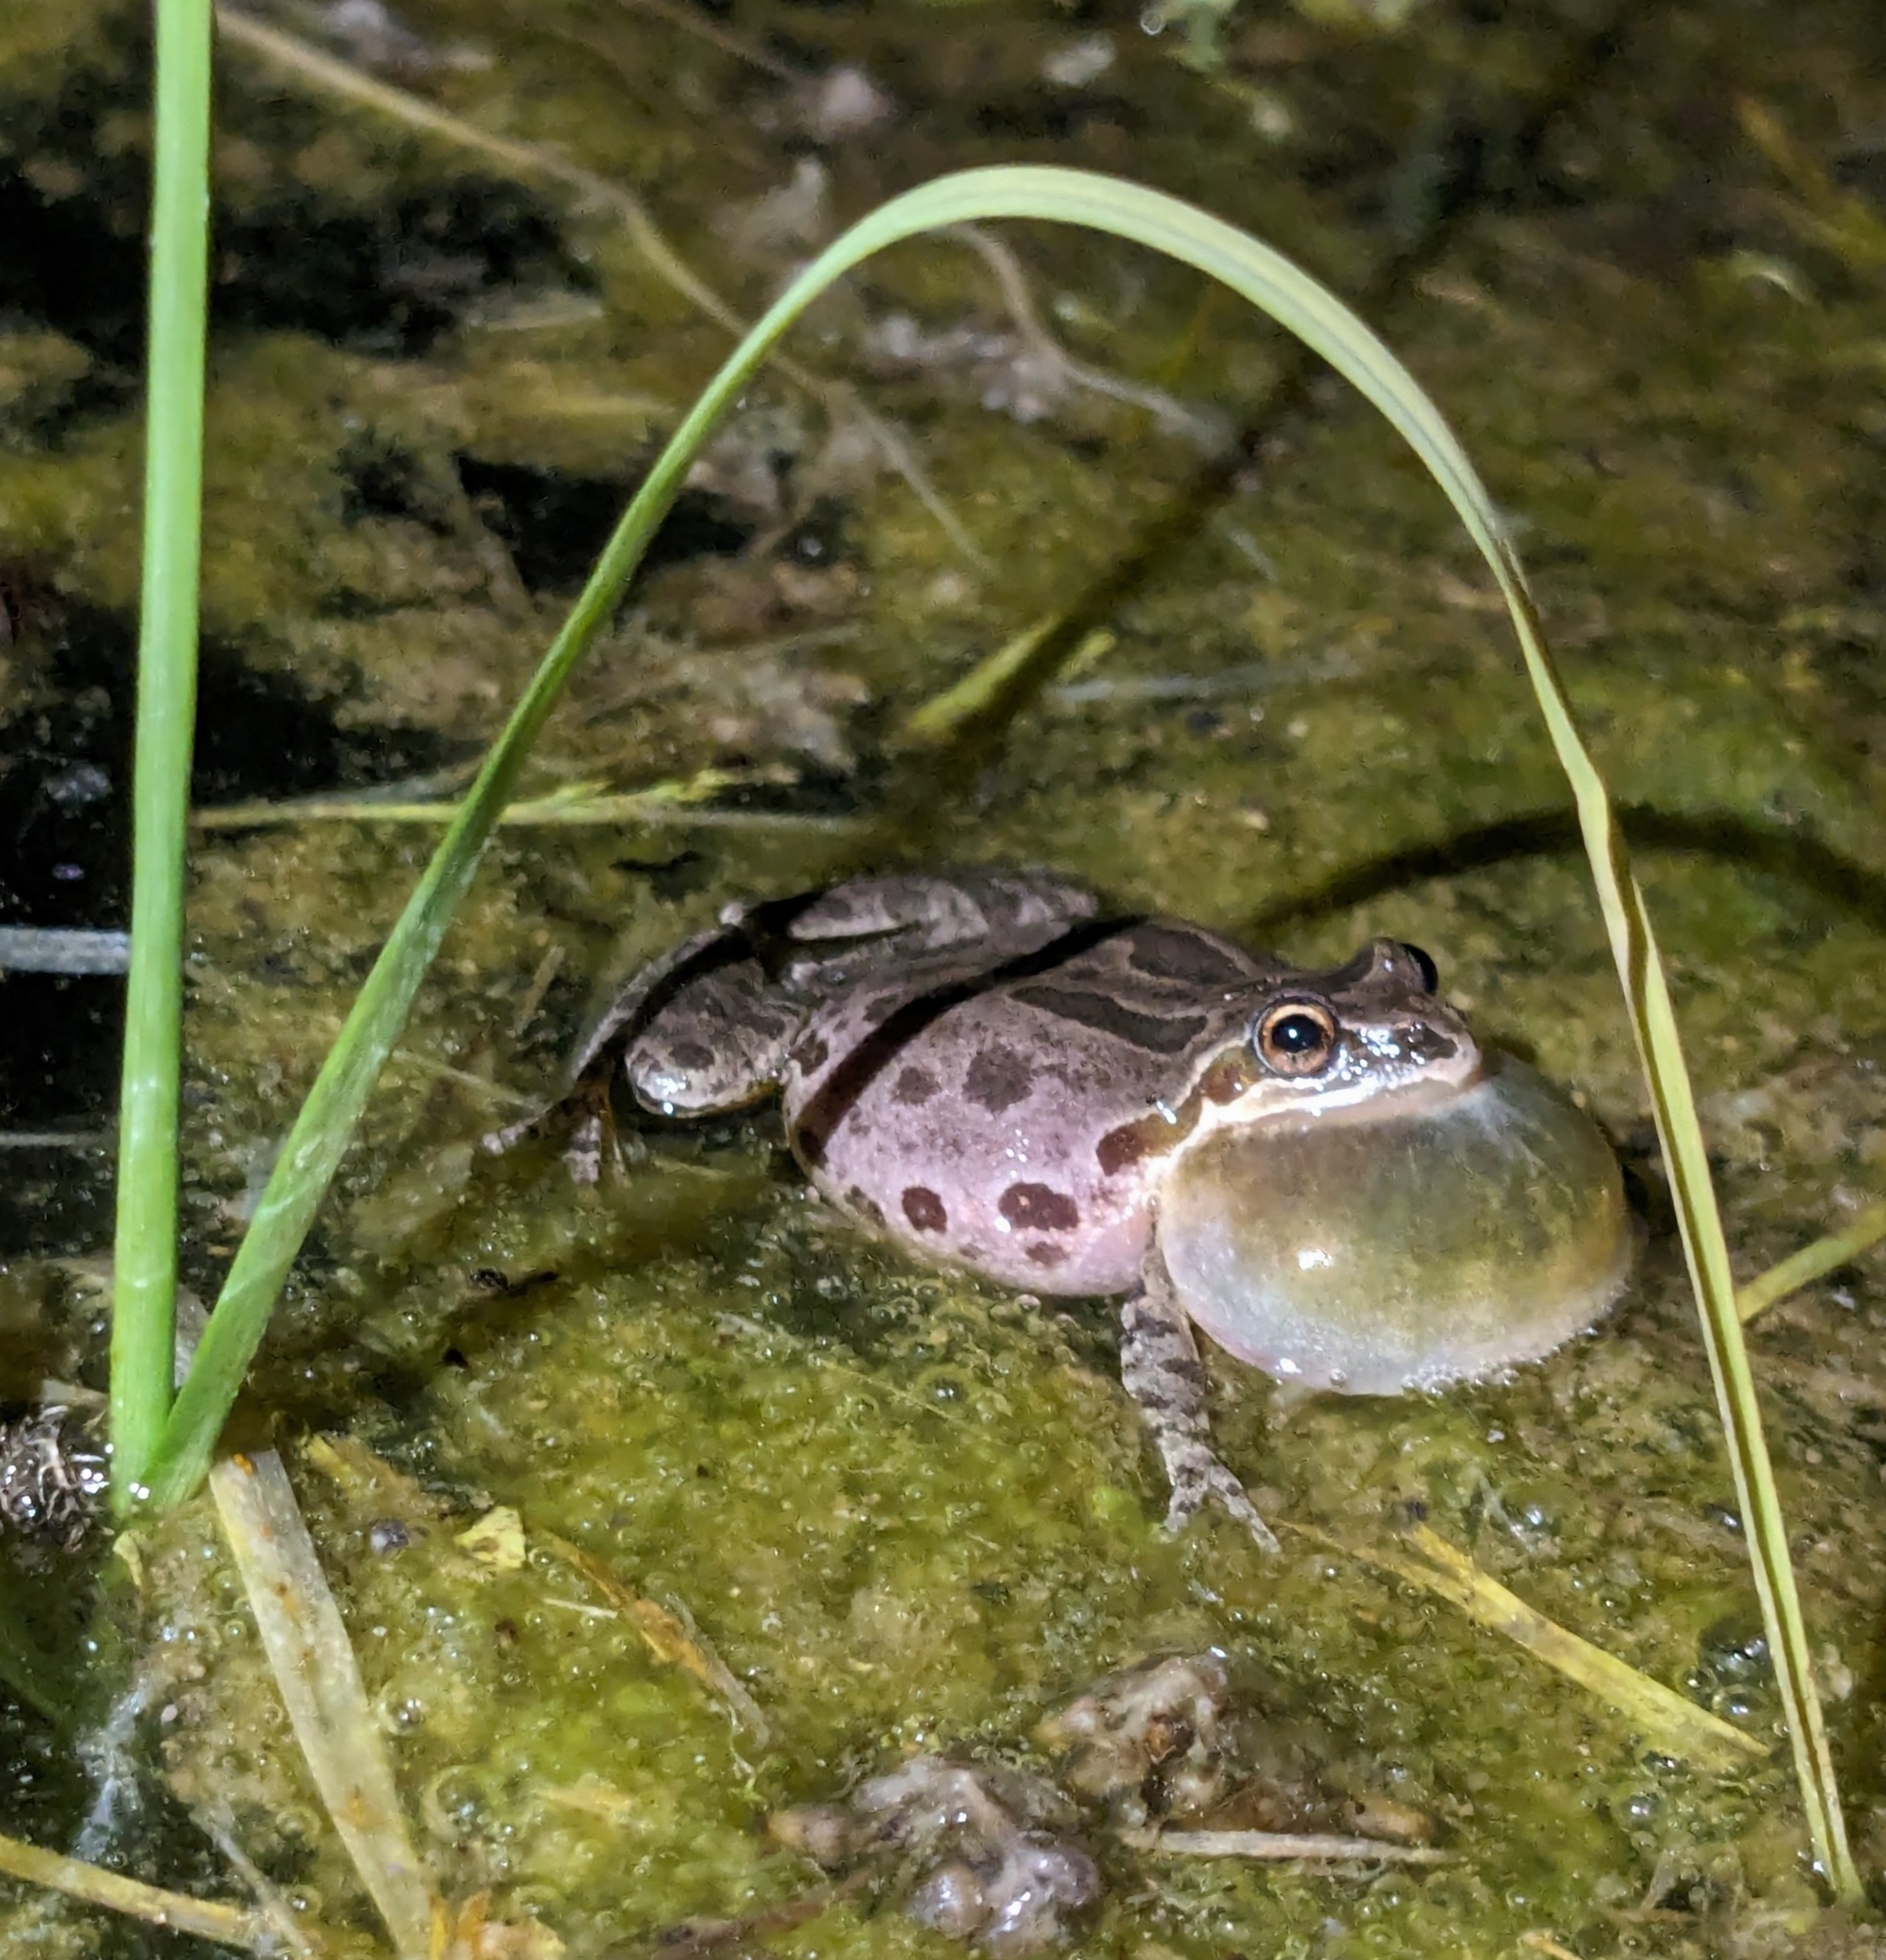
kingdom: Animalia
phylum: Chordata
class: Amphibia
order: Anura
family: Hylidae
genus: Pseudacris
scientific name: Pseudacris regilla
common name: Pacific chorus frog
